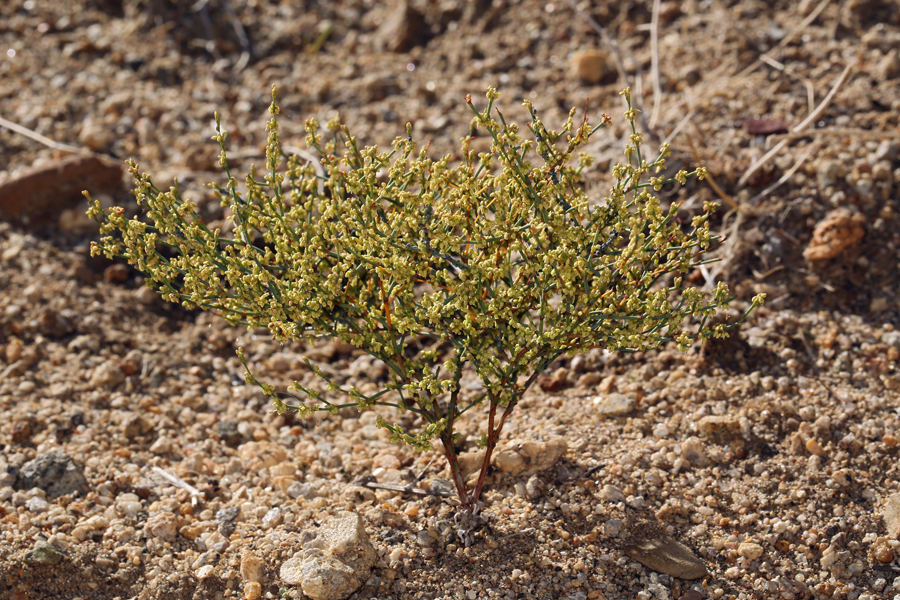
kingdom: Plantae
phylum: Tracheophyta
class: Magnoliopsida
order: Caryophyllales
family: Polygonaceae
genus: Eriogonum
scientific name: Eriogonum brachyanthum
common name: Short-flower wild buckwheat
